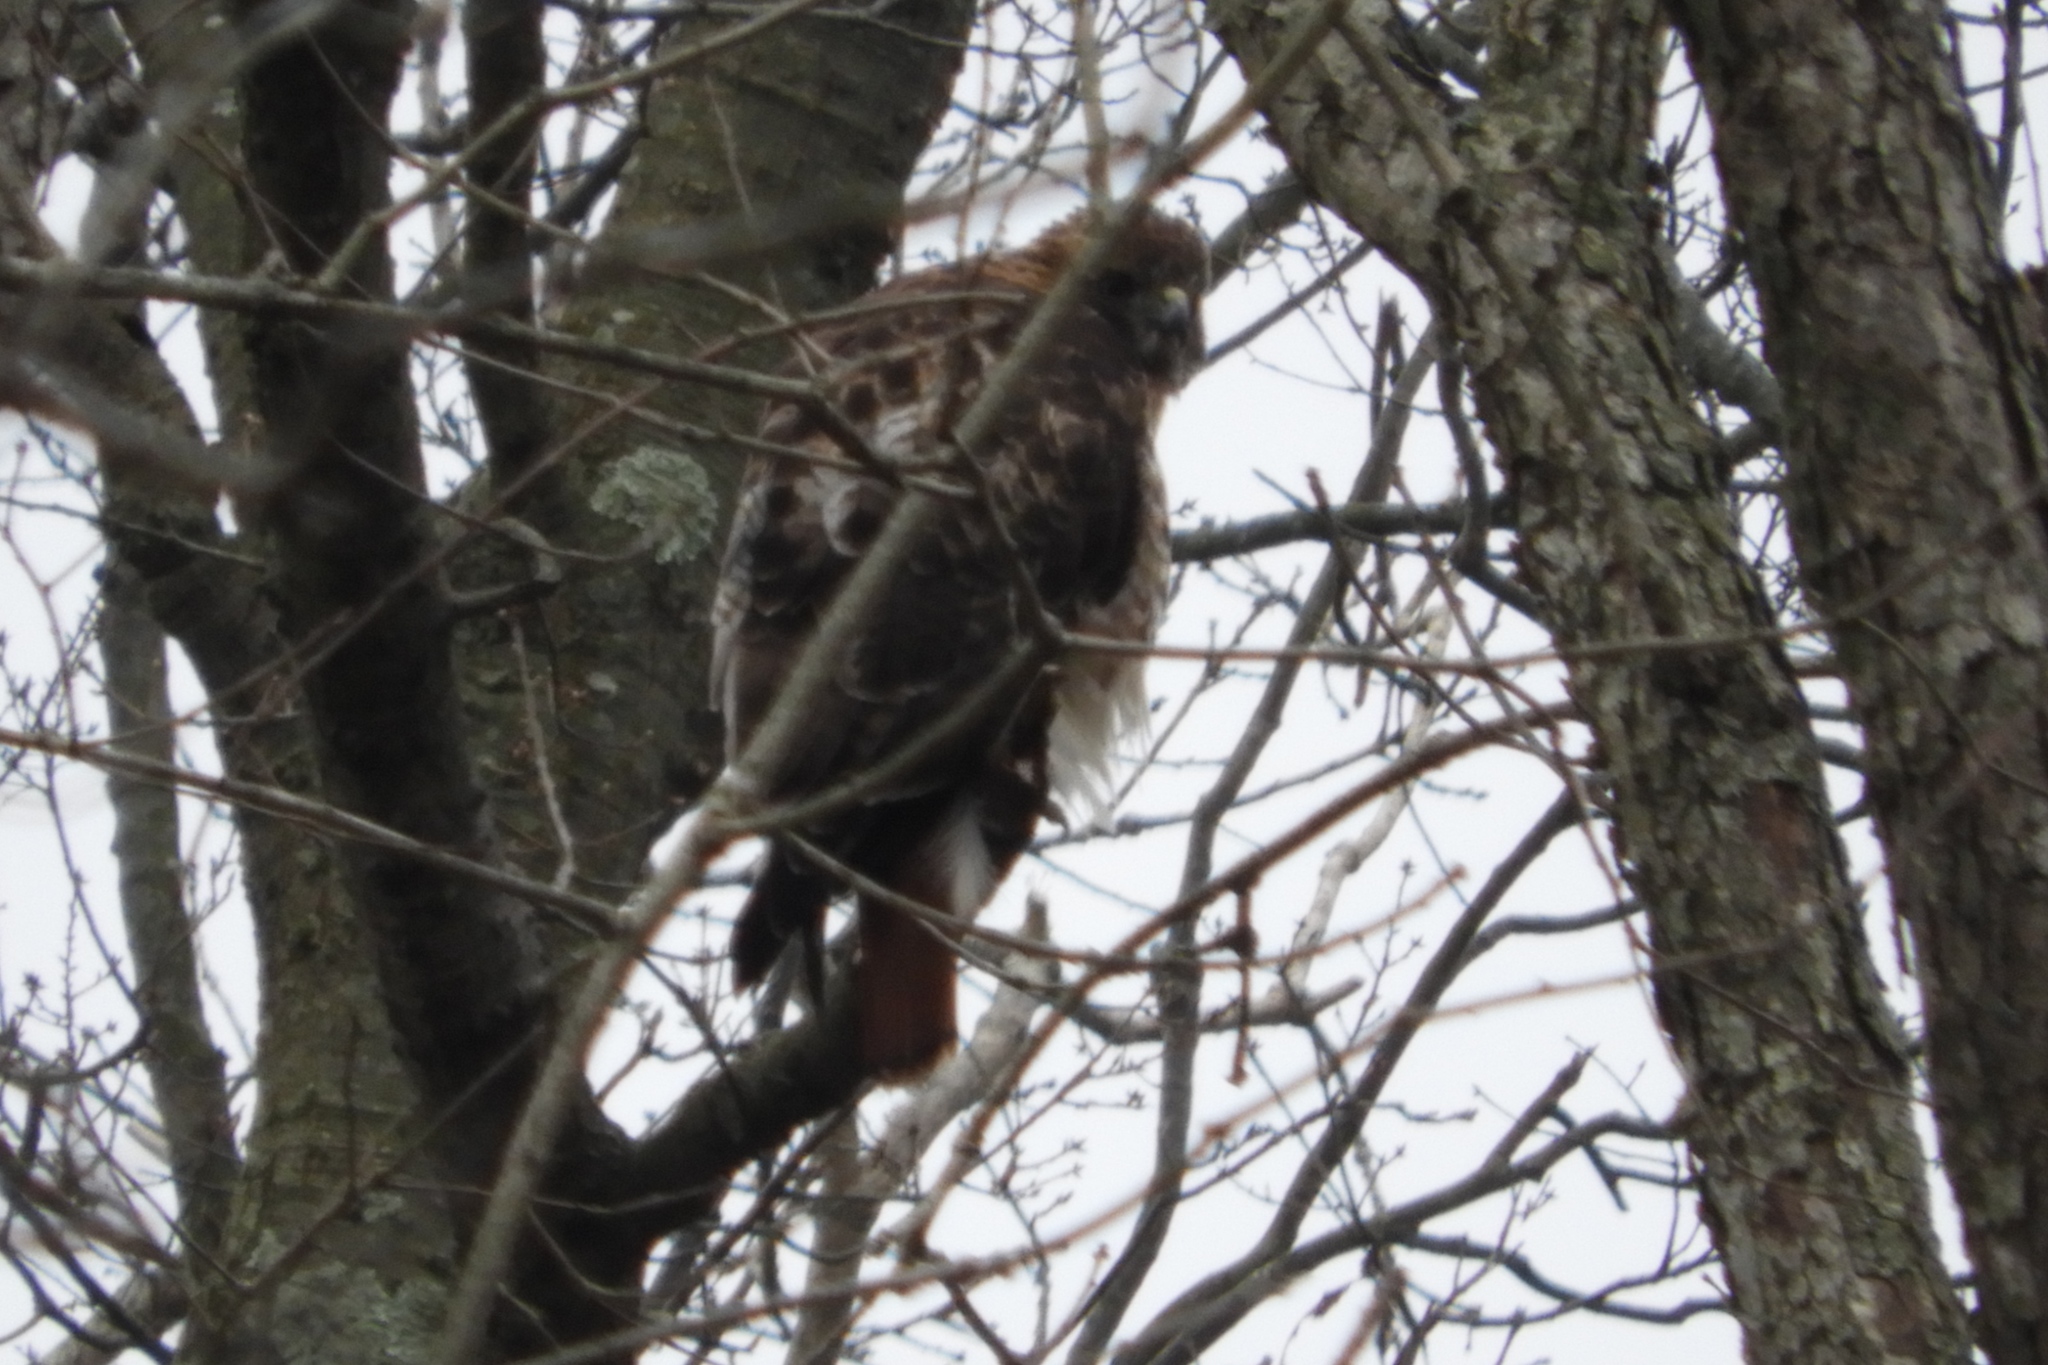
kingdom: Animalia
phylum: Chordata
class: Aves
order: Accipitriformes
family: Accipitridae
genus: Buteo
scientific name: Buteo jamaicensis
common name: Red-tailed hawk
